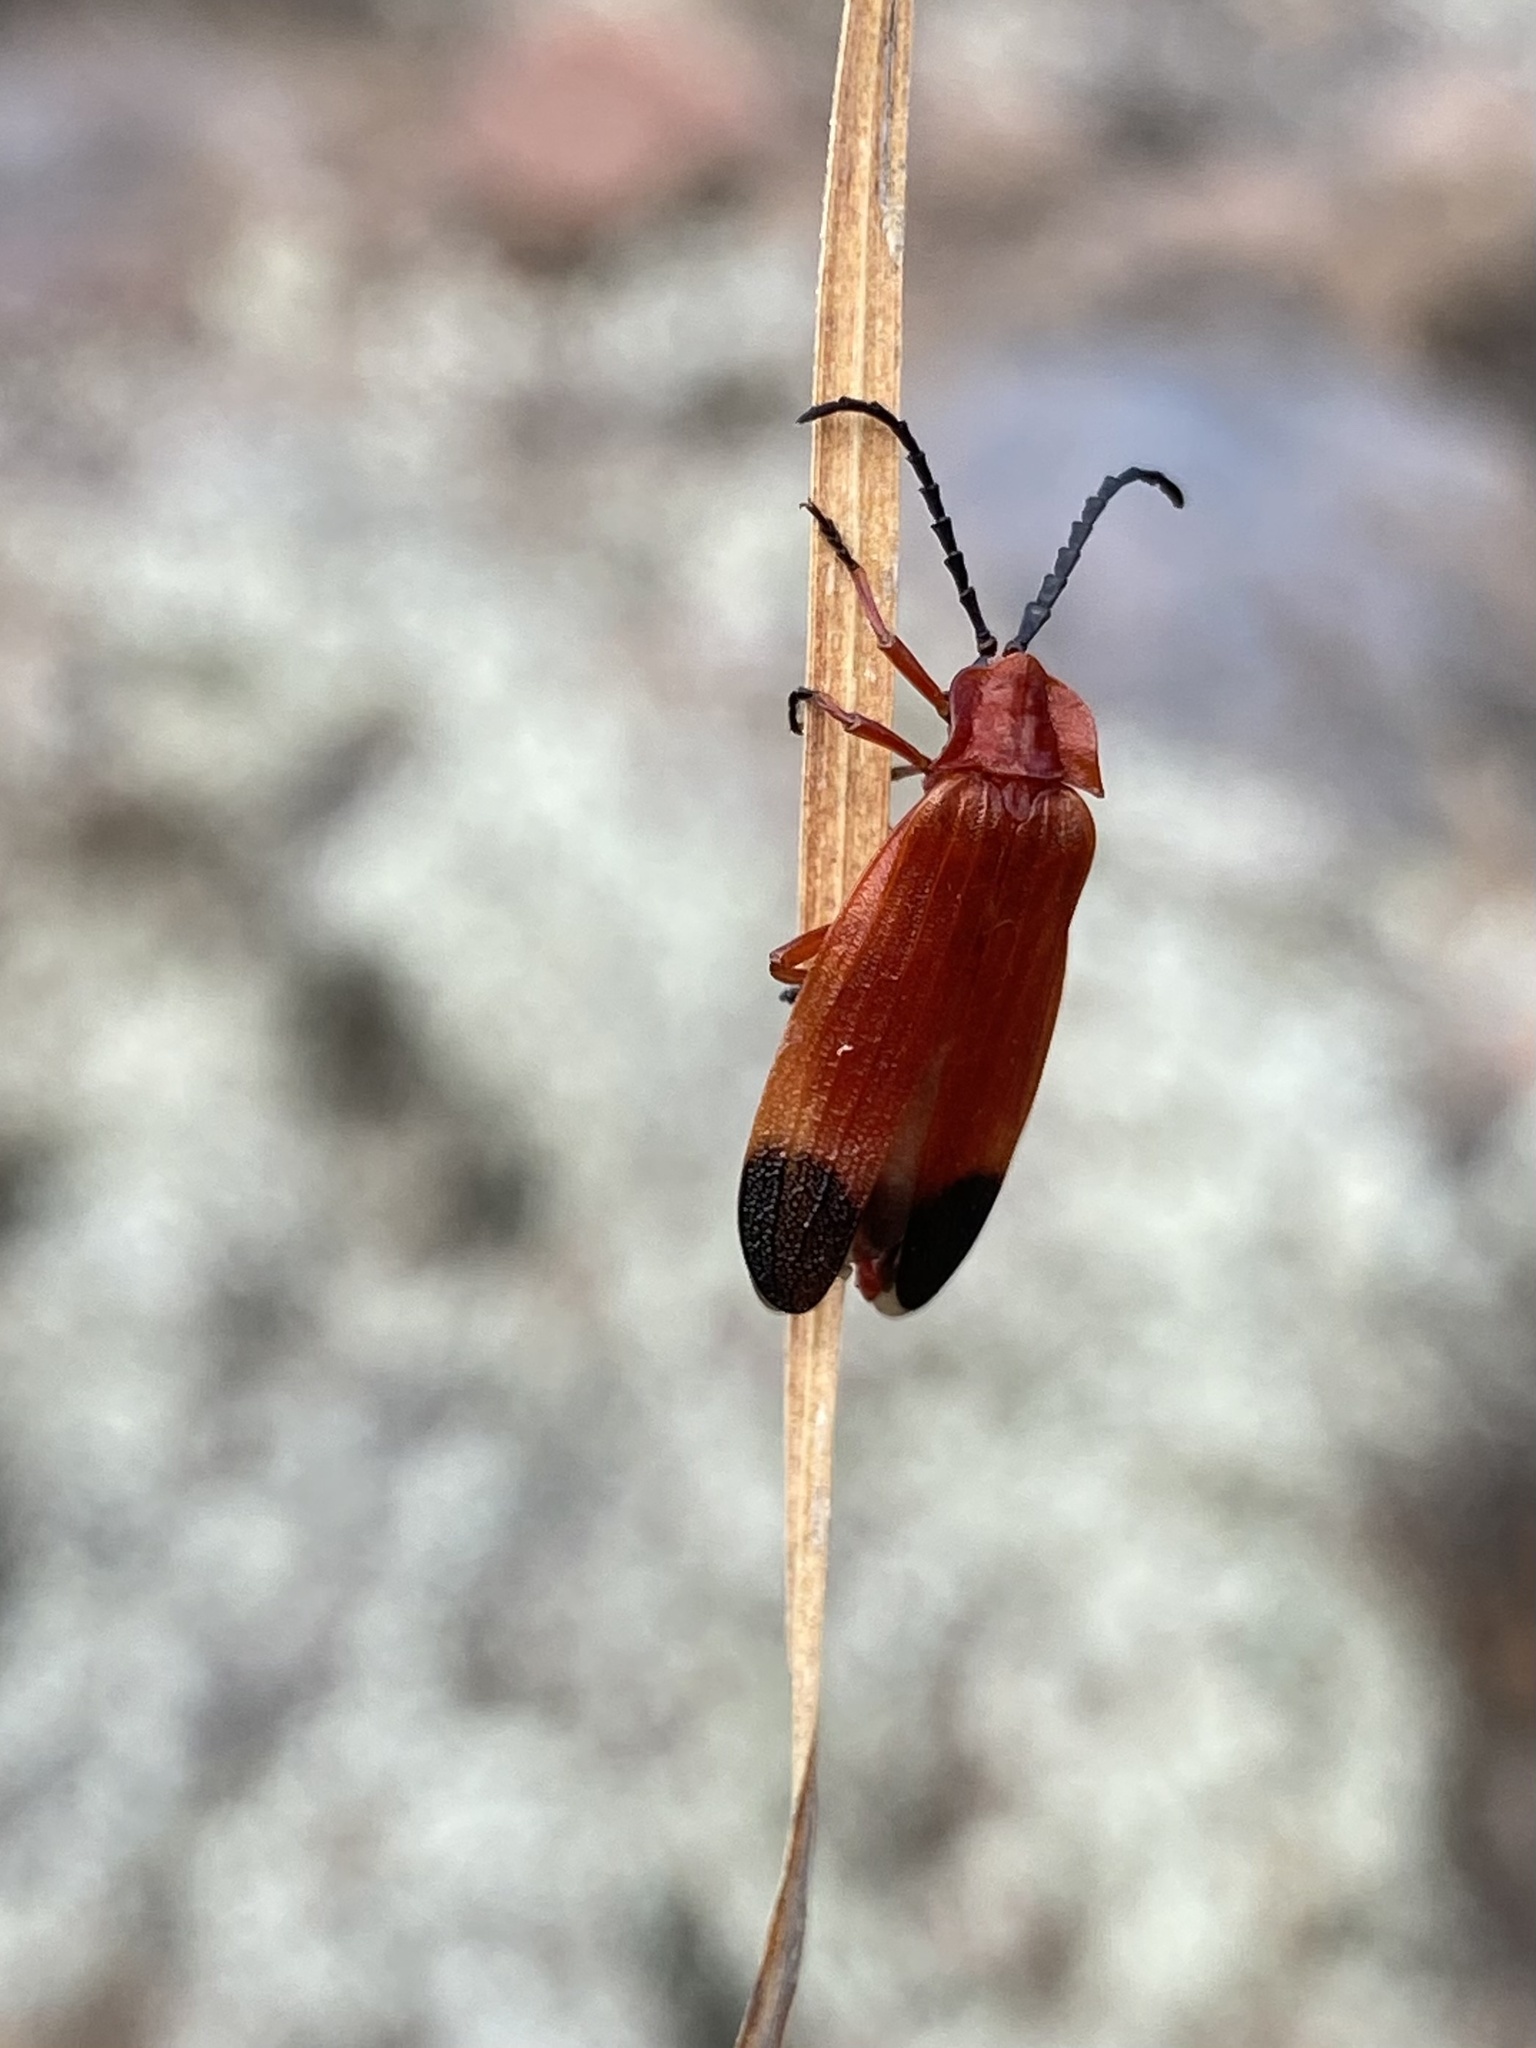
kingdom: Animalia
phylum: Arthropoda
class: Insecta
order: Coleoptera
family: Lycidae
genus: Lycus
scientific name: Lycus sanguineus
